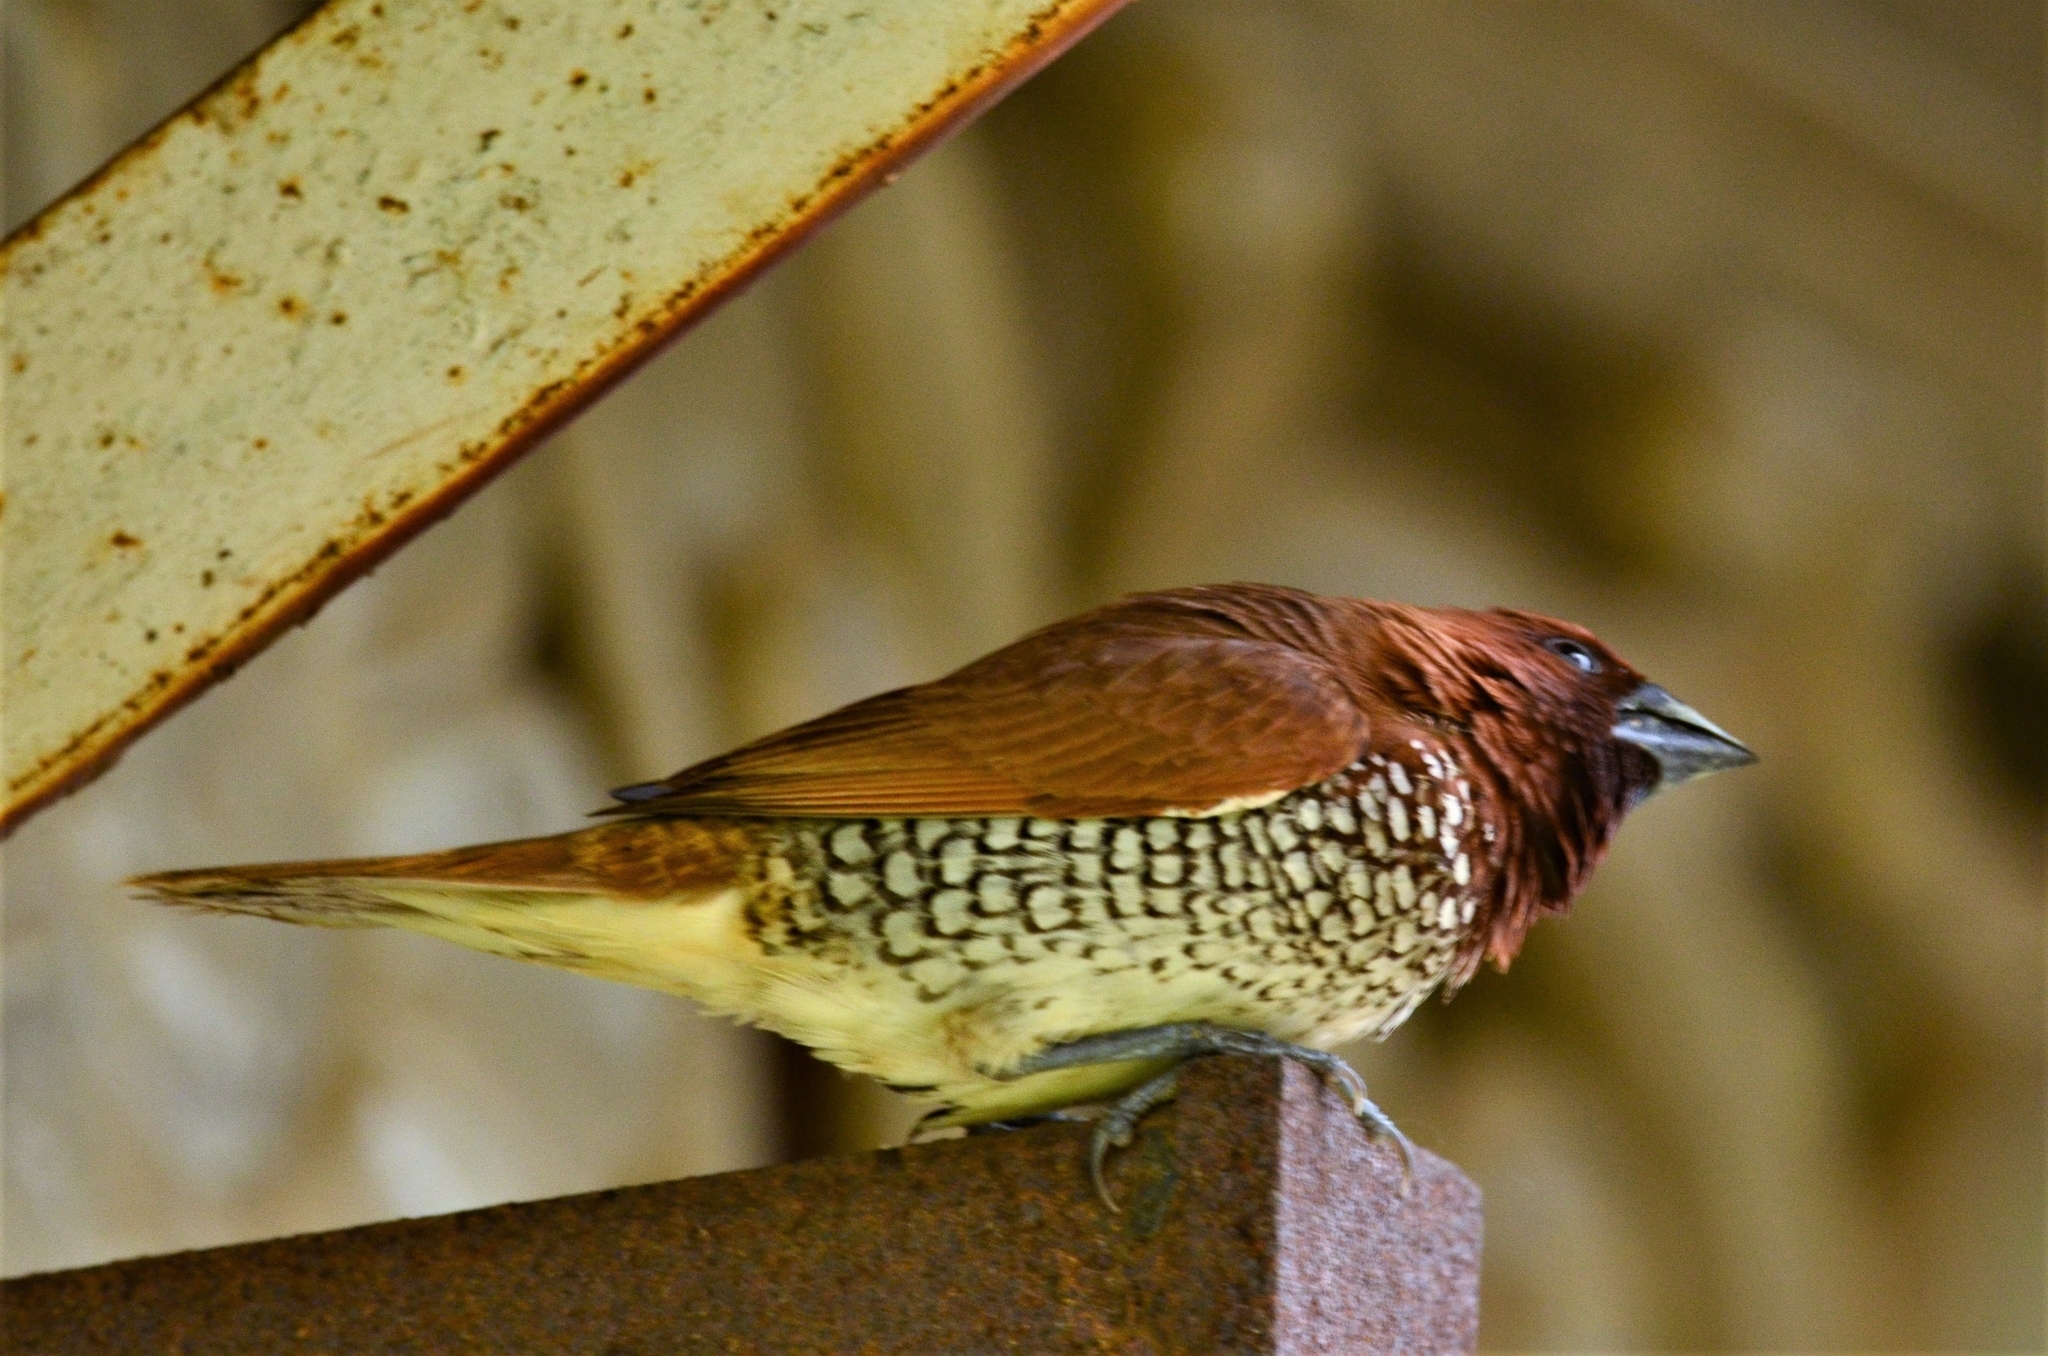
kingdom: Animalia
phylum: Chordata
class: Aves
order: Passeriformes
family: Estrildidae
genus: Lonchura
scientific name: Lonchura punctulata
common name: Scaly-breasted munia
